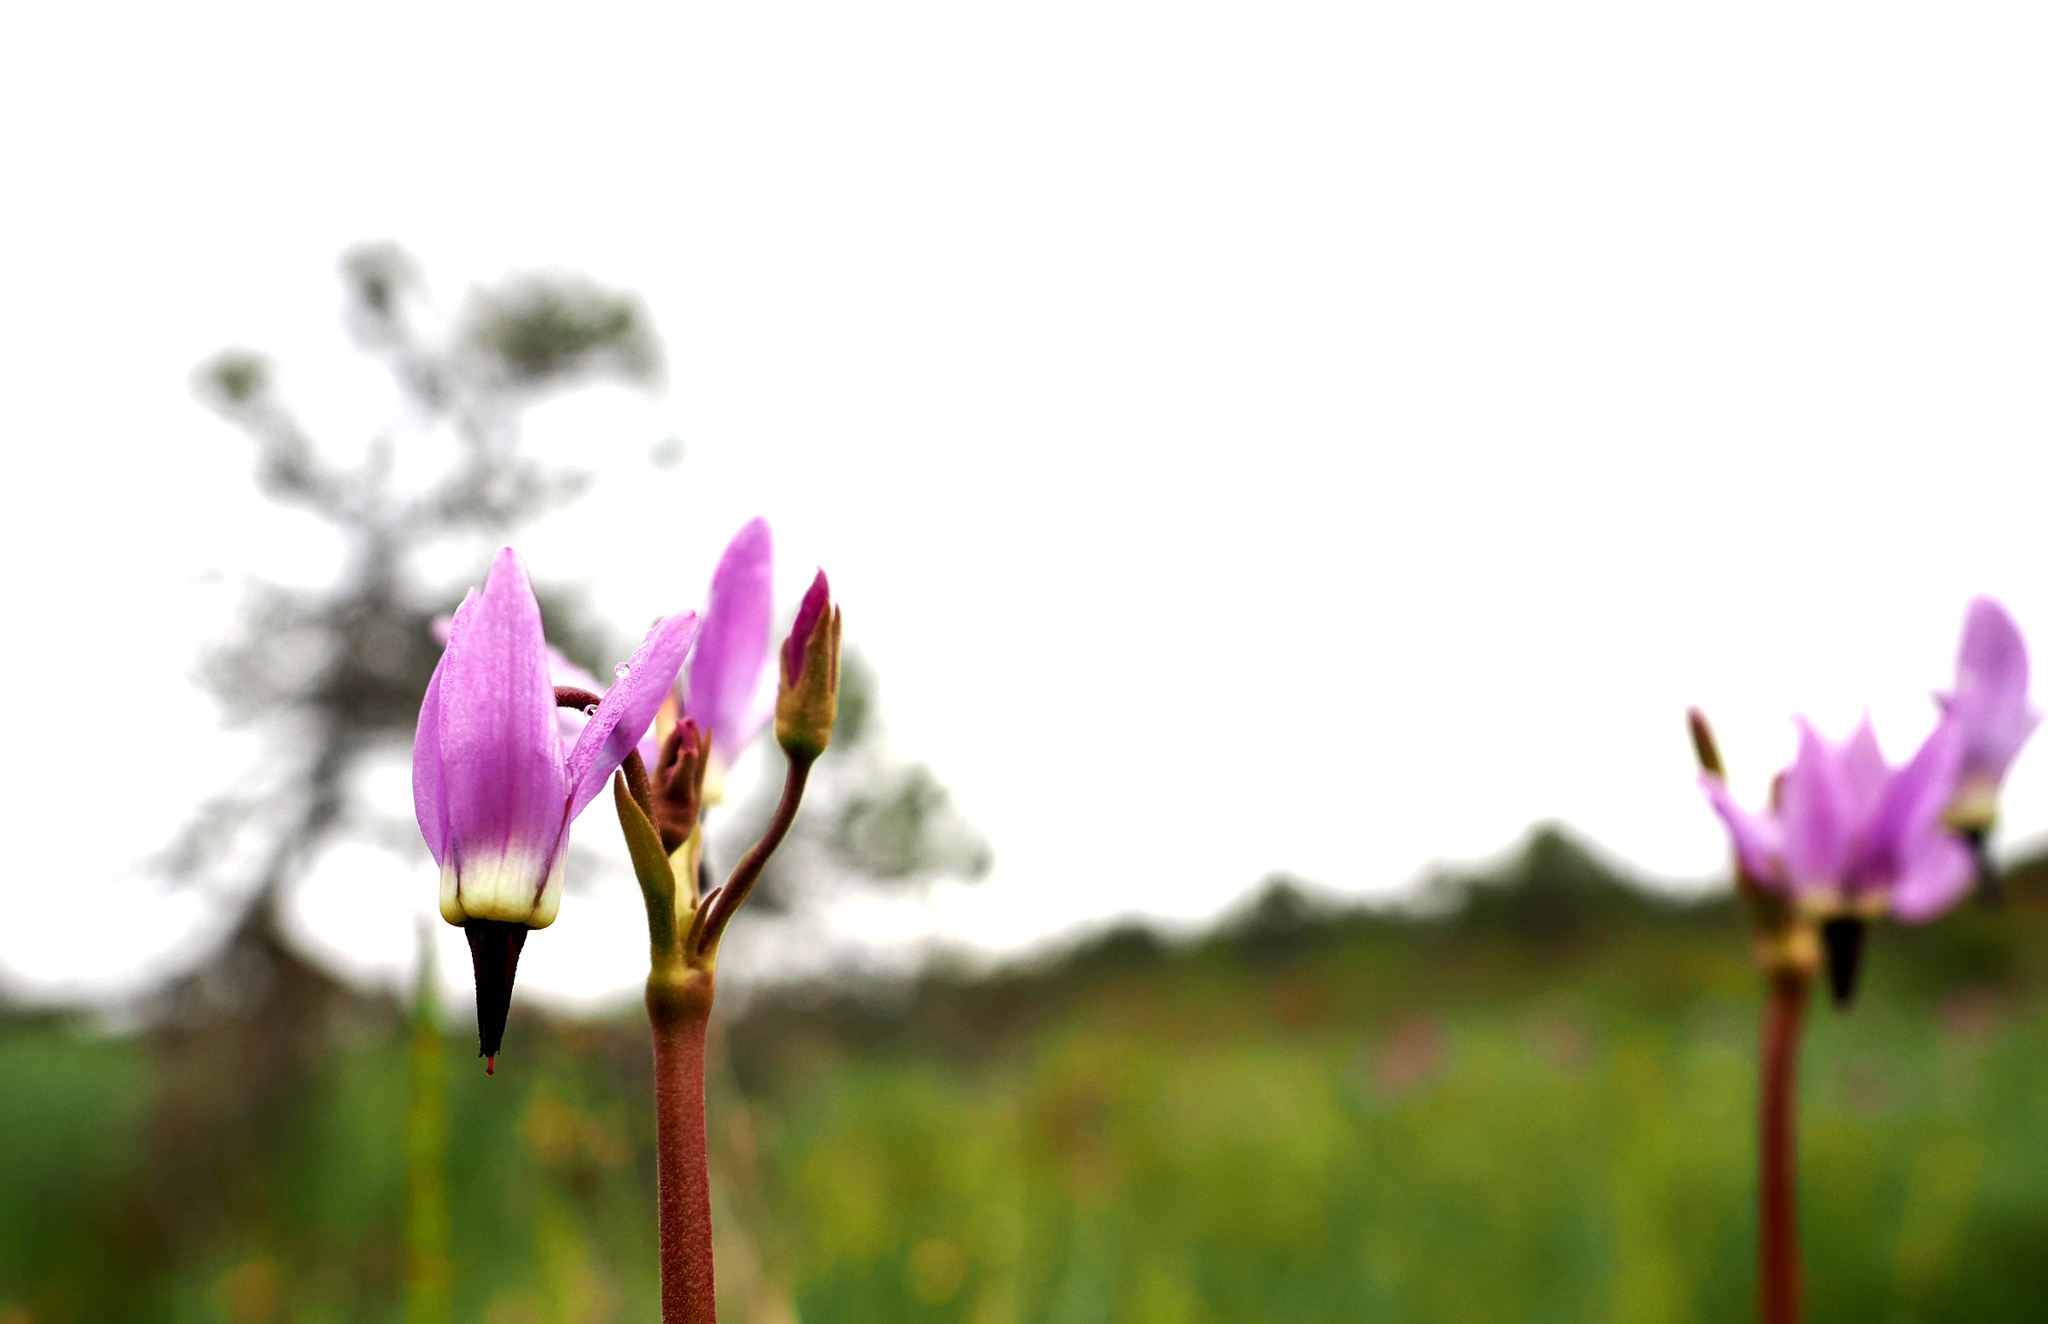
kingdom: Plantae
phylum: Tracheophyta
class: Magnoliopsida
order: Ericales
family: Primulaceae
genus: Dodecatheon
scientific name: Dodecatheon jeffreyanum
